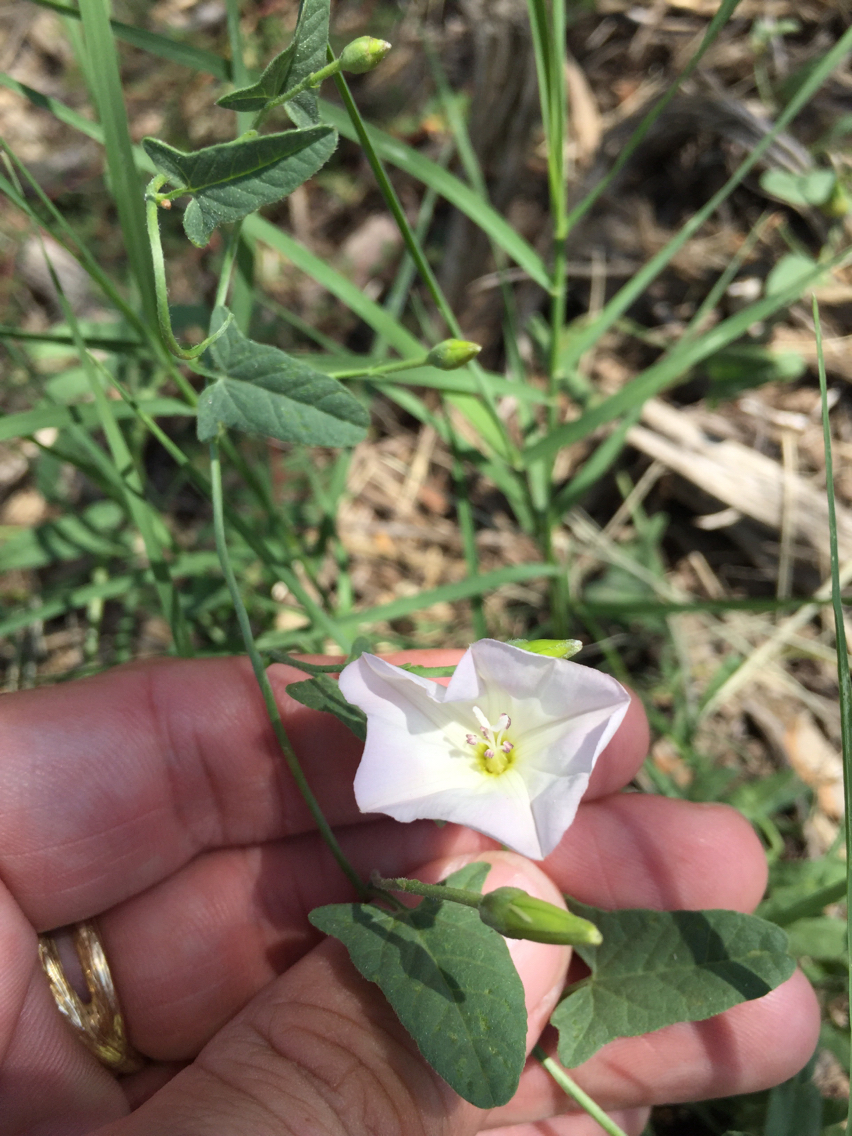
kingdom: Plantae
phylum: Tracheophyta
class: Magnoliopsida
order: Solanales
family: Convolvulaceae
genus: Convolvulus
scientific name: Convolvulus arvensis
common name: Field bindweed
